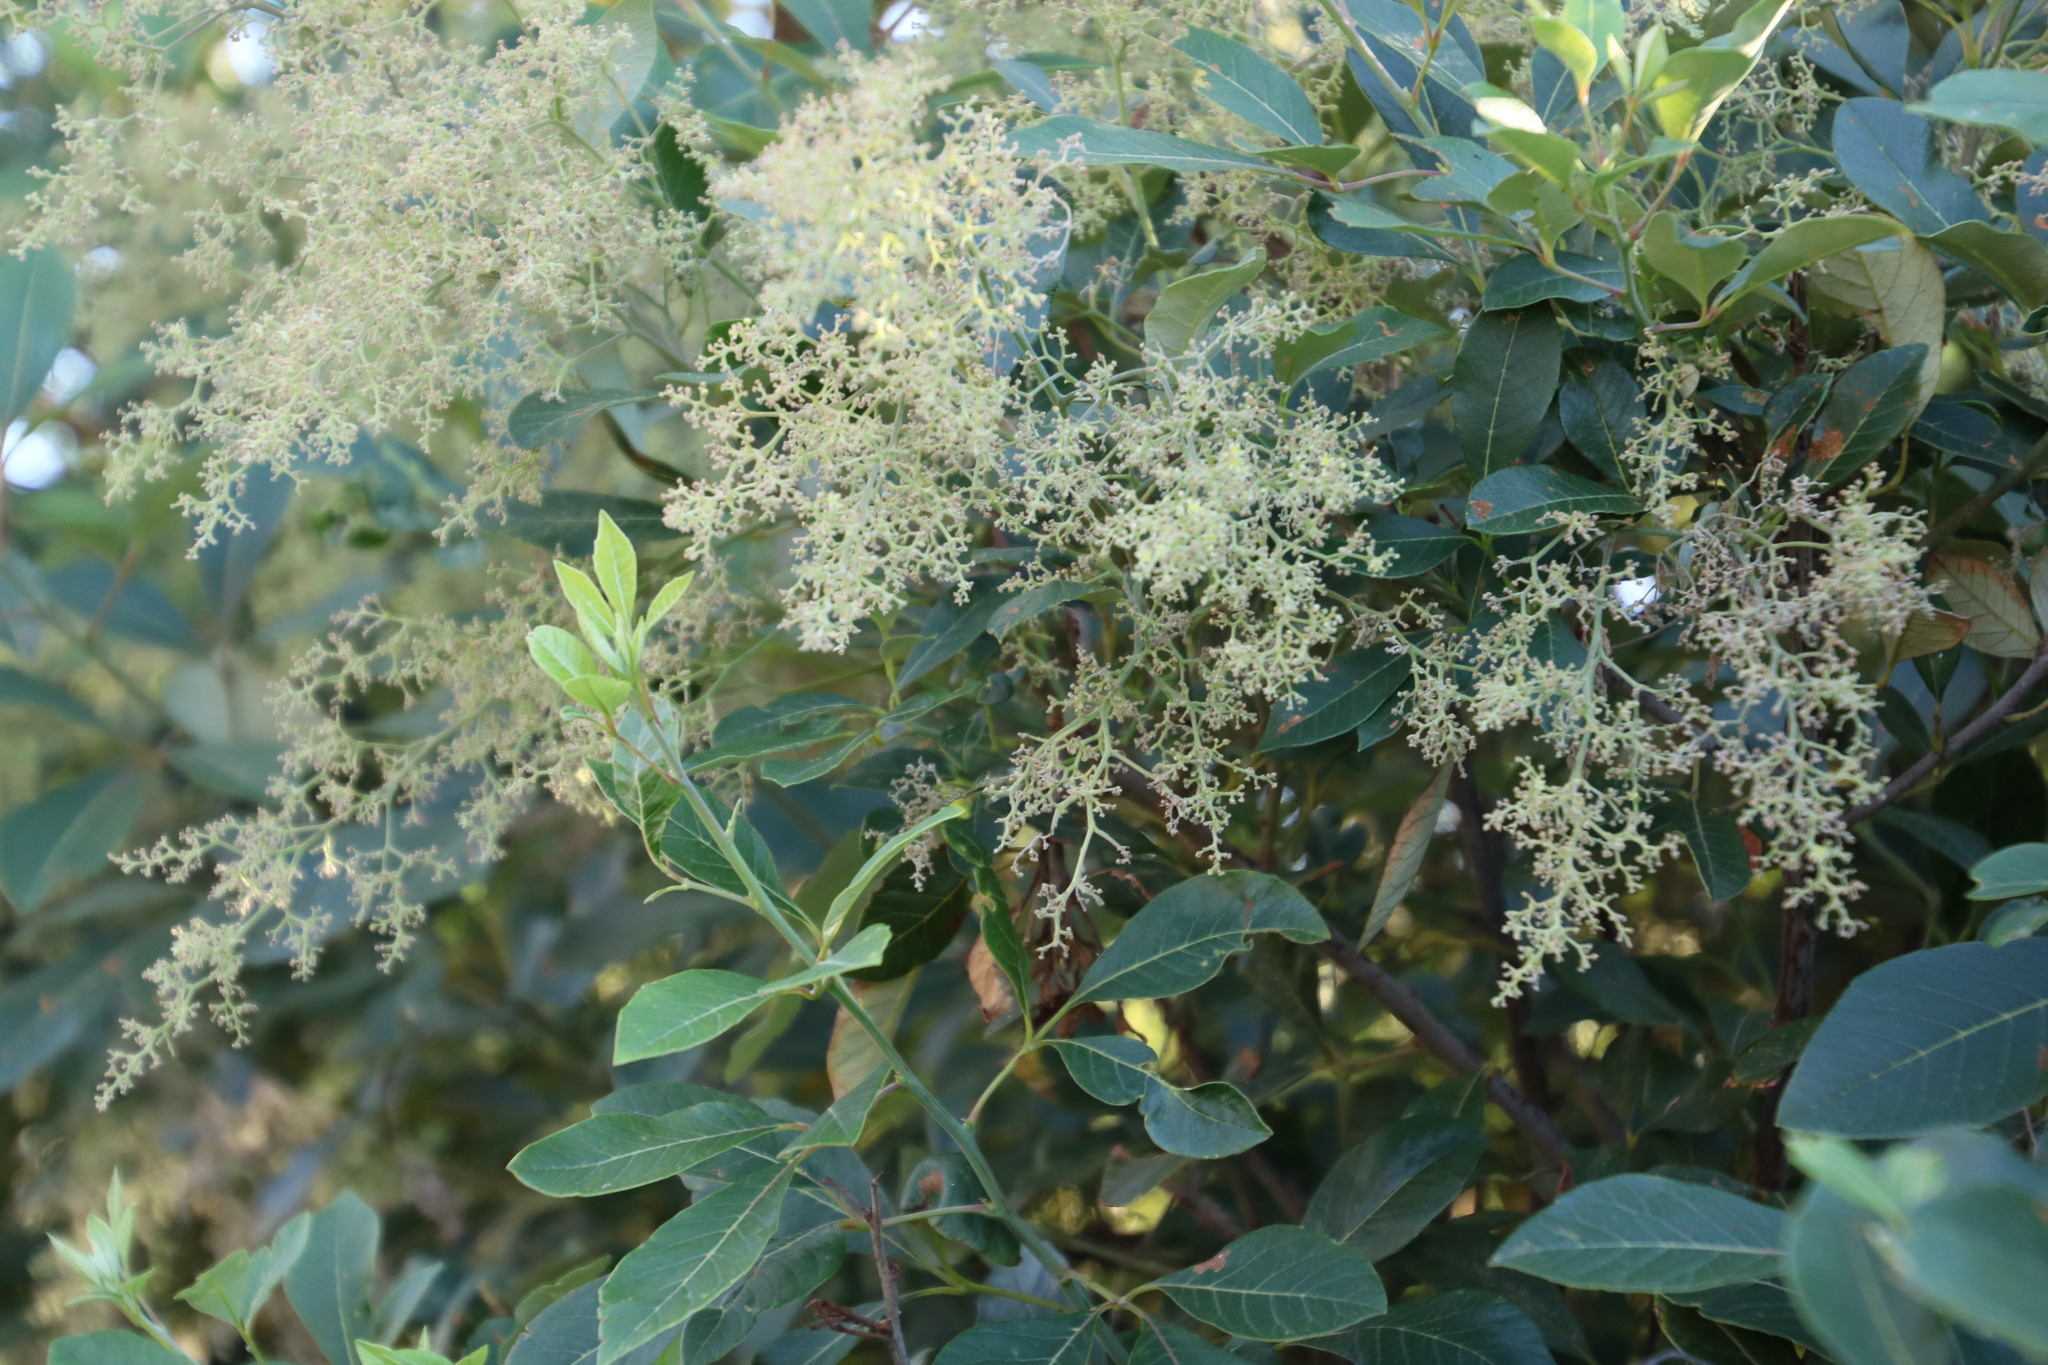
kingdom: Plantae
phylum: Tracheophyta
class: Magnoliopsida
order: Sapindales
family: Anacardiaceae
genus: Searsia
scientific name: Searsia tomentosa
